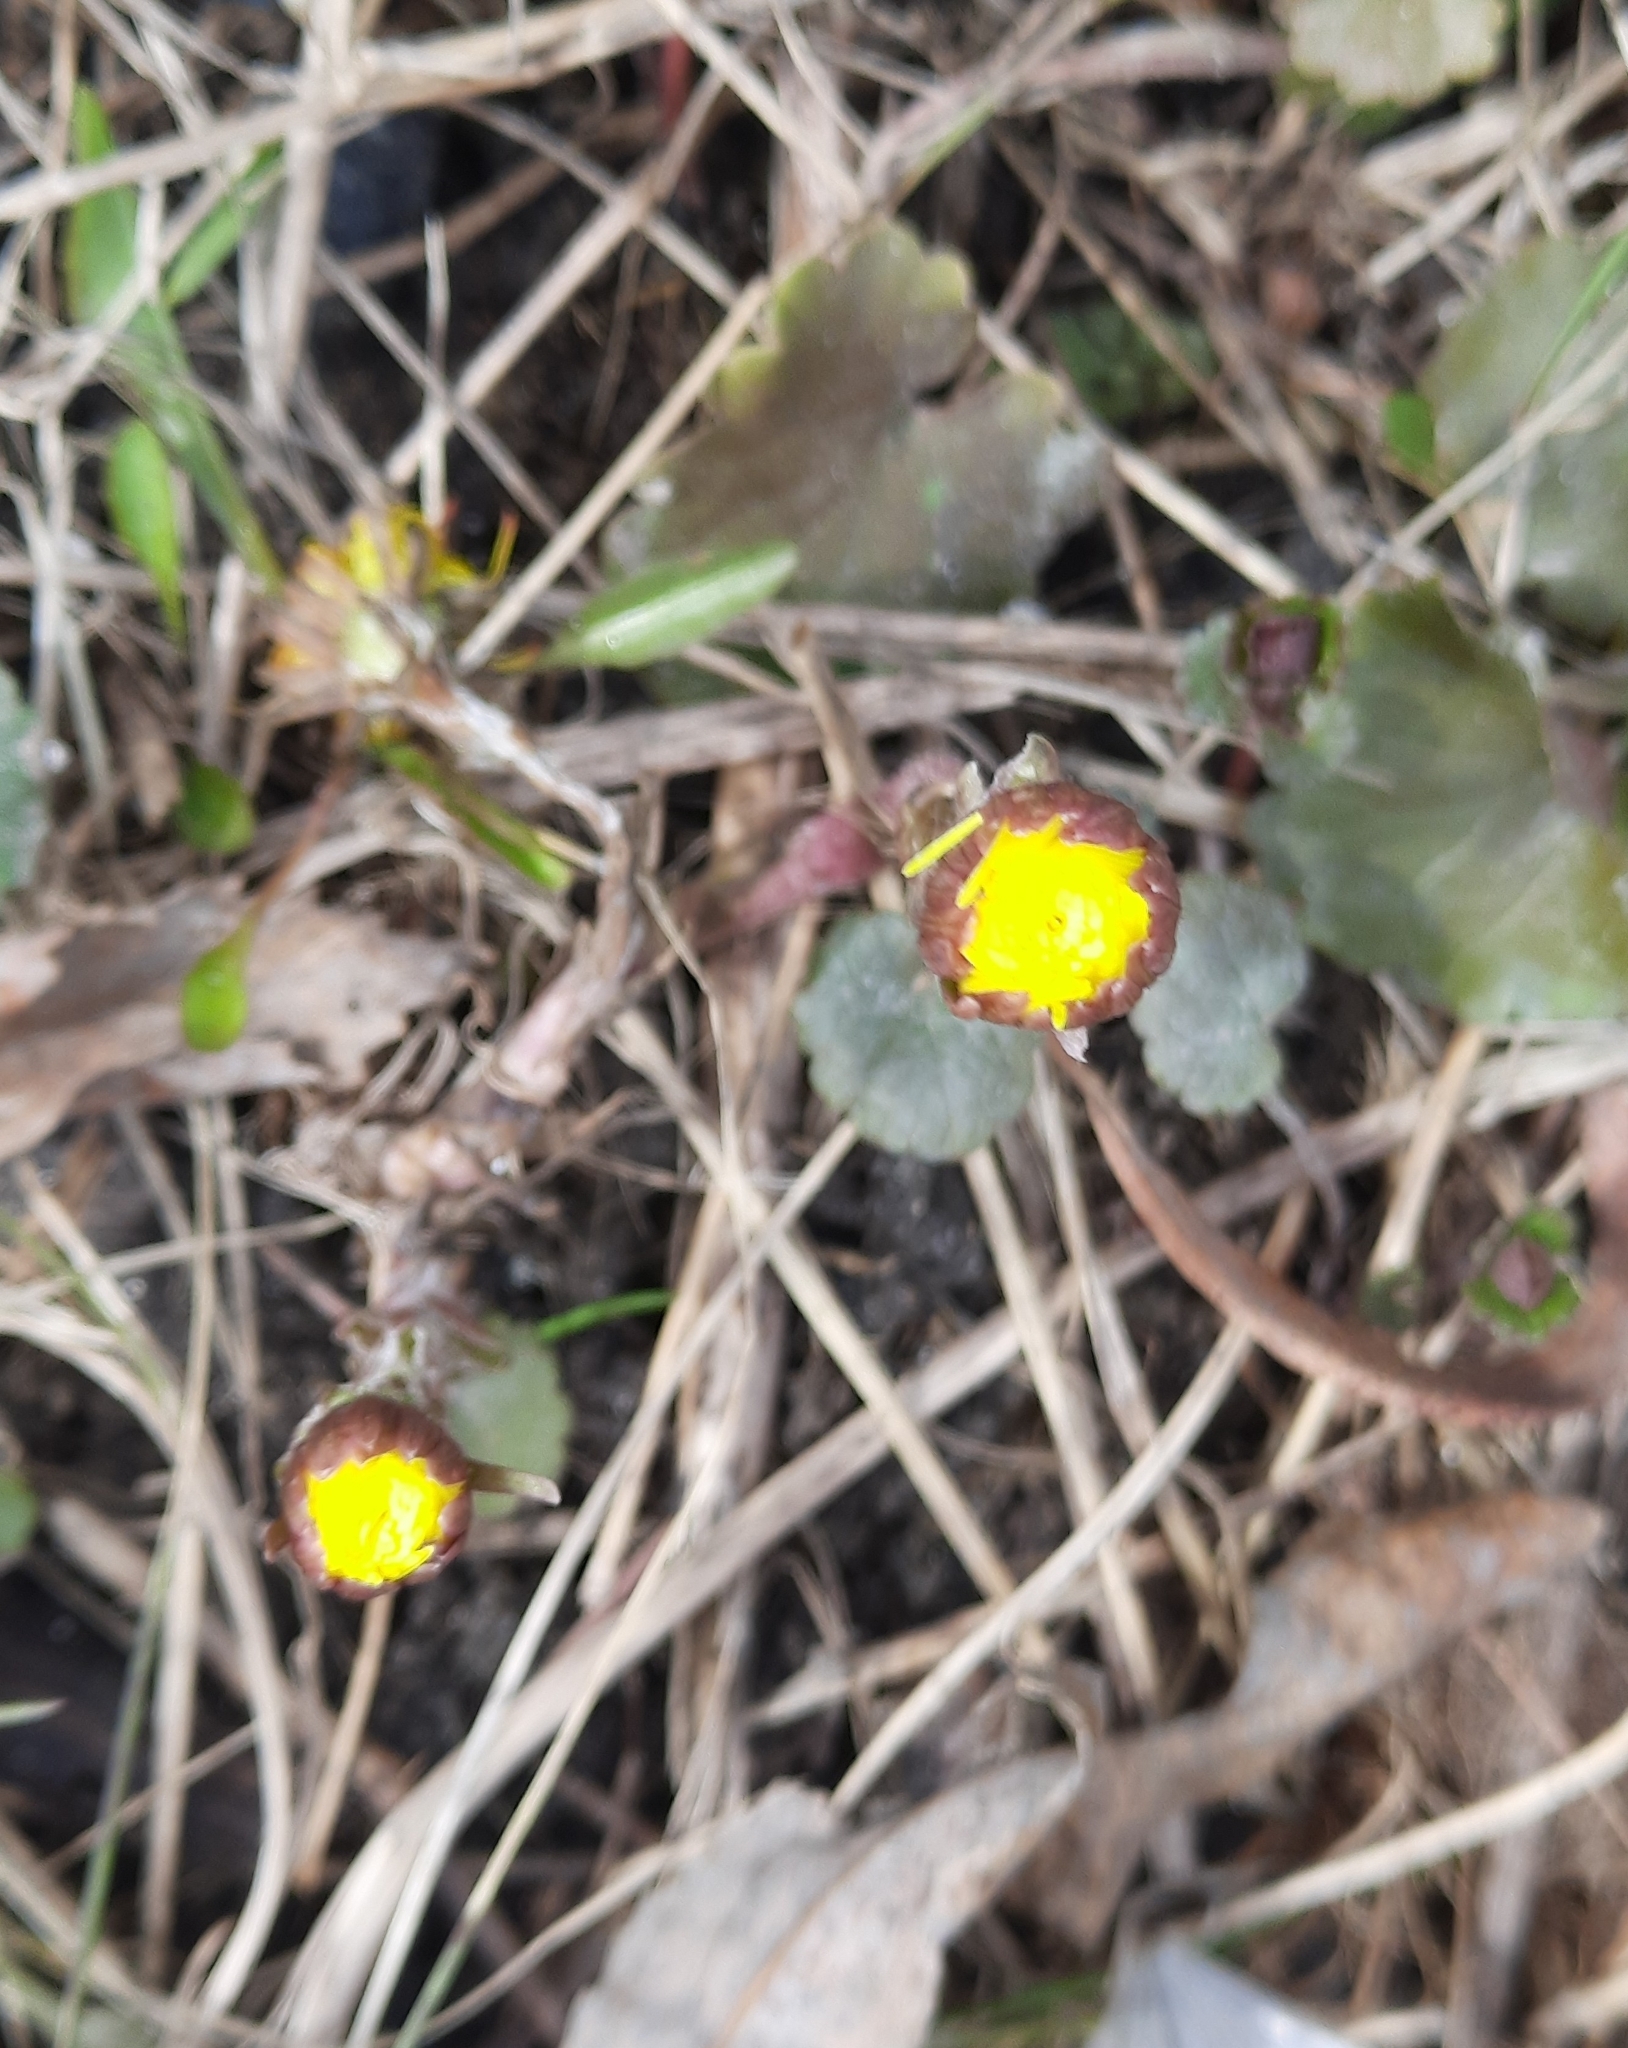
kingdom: Plantae
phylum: Tracheophyta
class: Magnoliopsida
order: Asterales
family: Asteraceae
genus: Tussilago
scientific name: Tussilago farfara
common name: Coltsfoot
